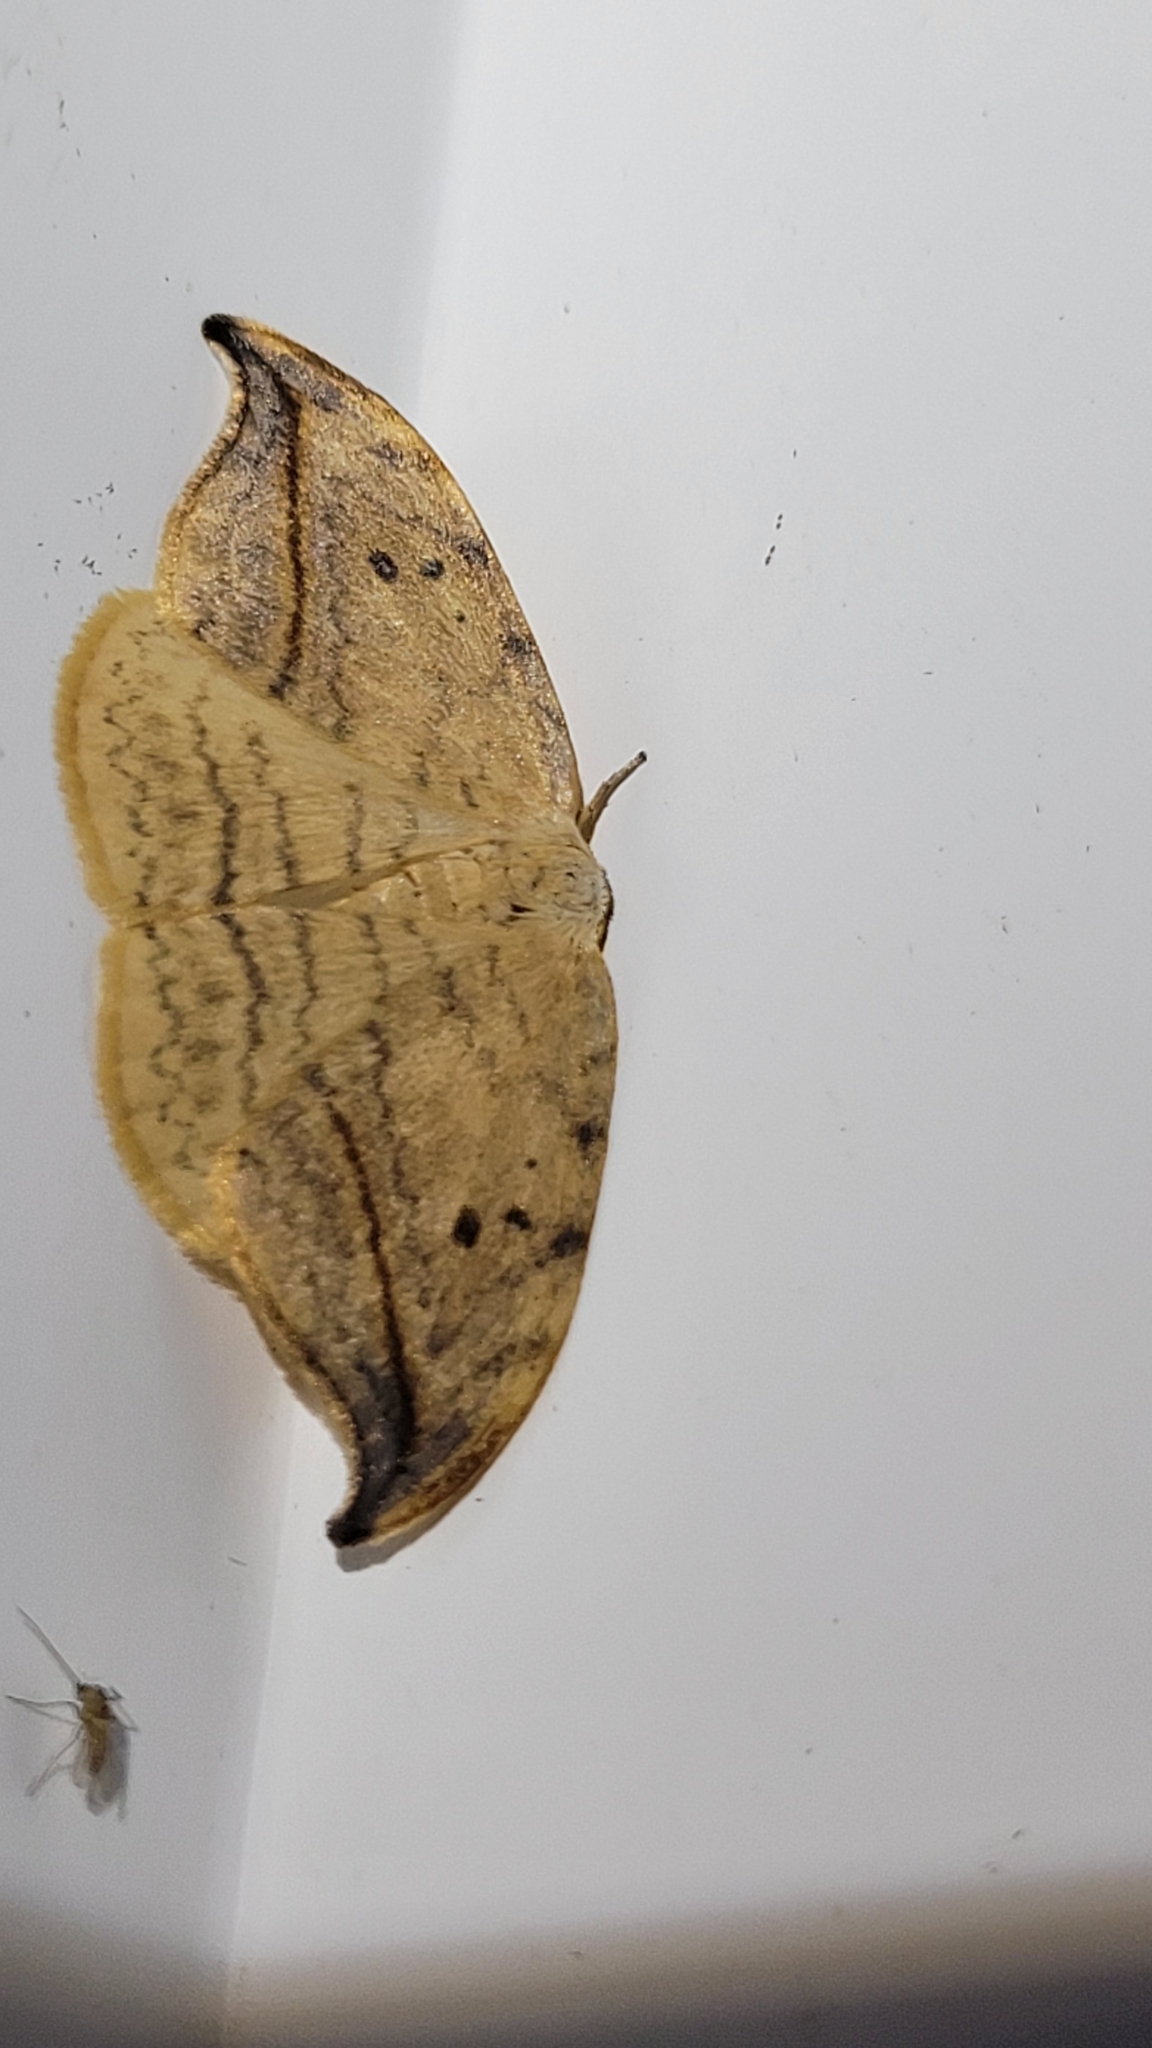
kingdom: Animalia
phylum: Arthropoda
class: Insecta
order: Lepidoptera
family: Drepanidae
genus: Drepana
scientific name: Drepana arcuata
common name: Arched hooktip moth
